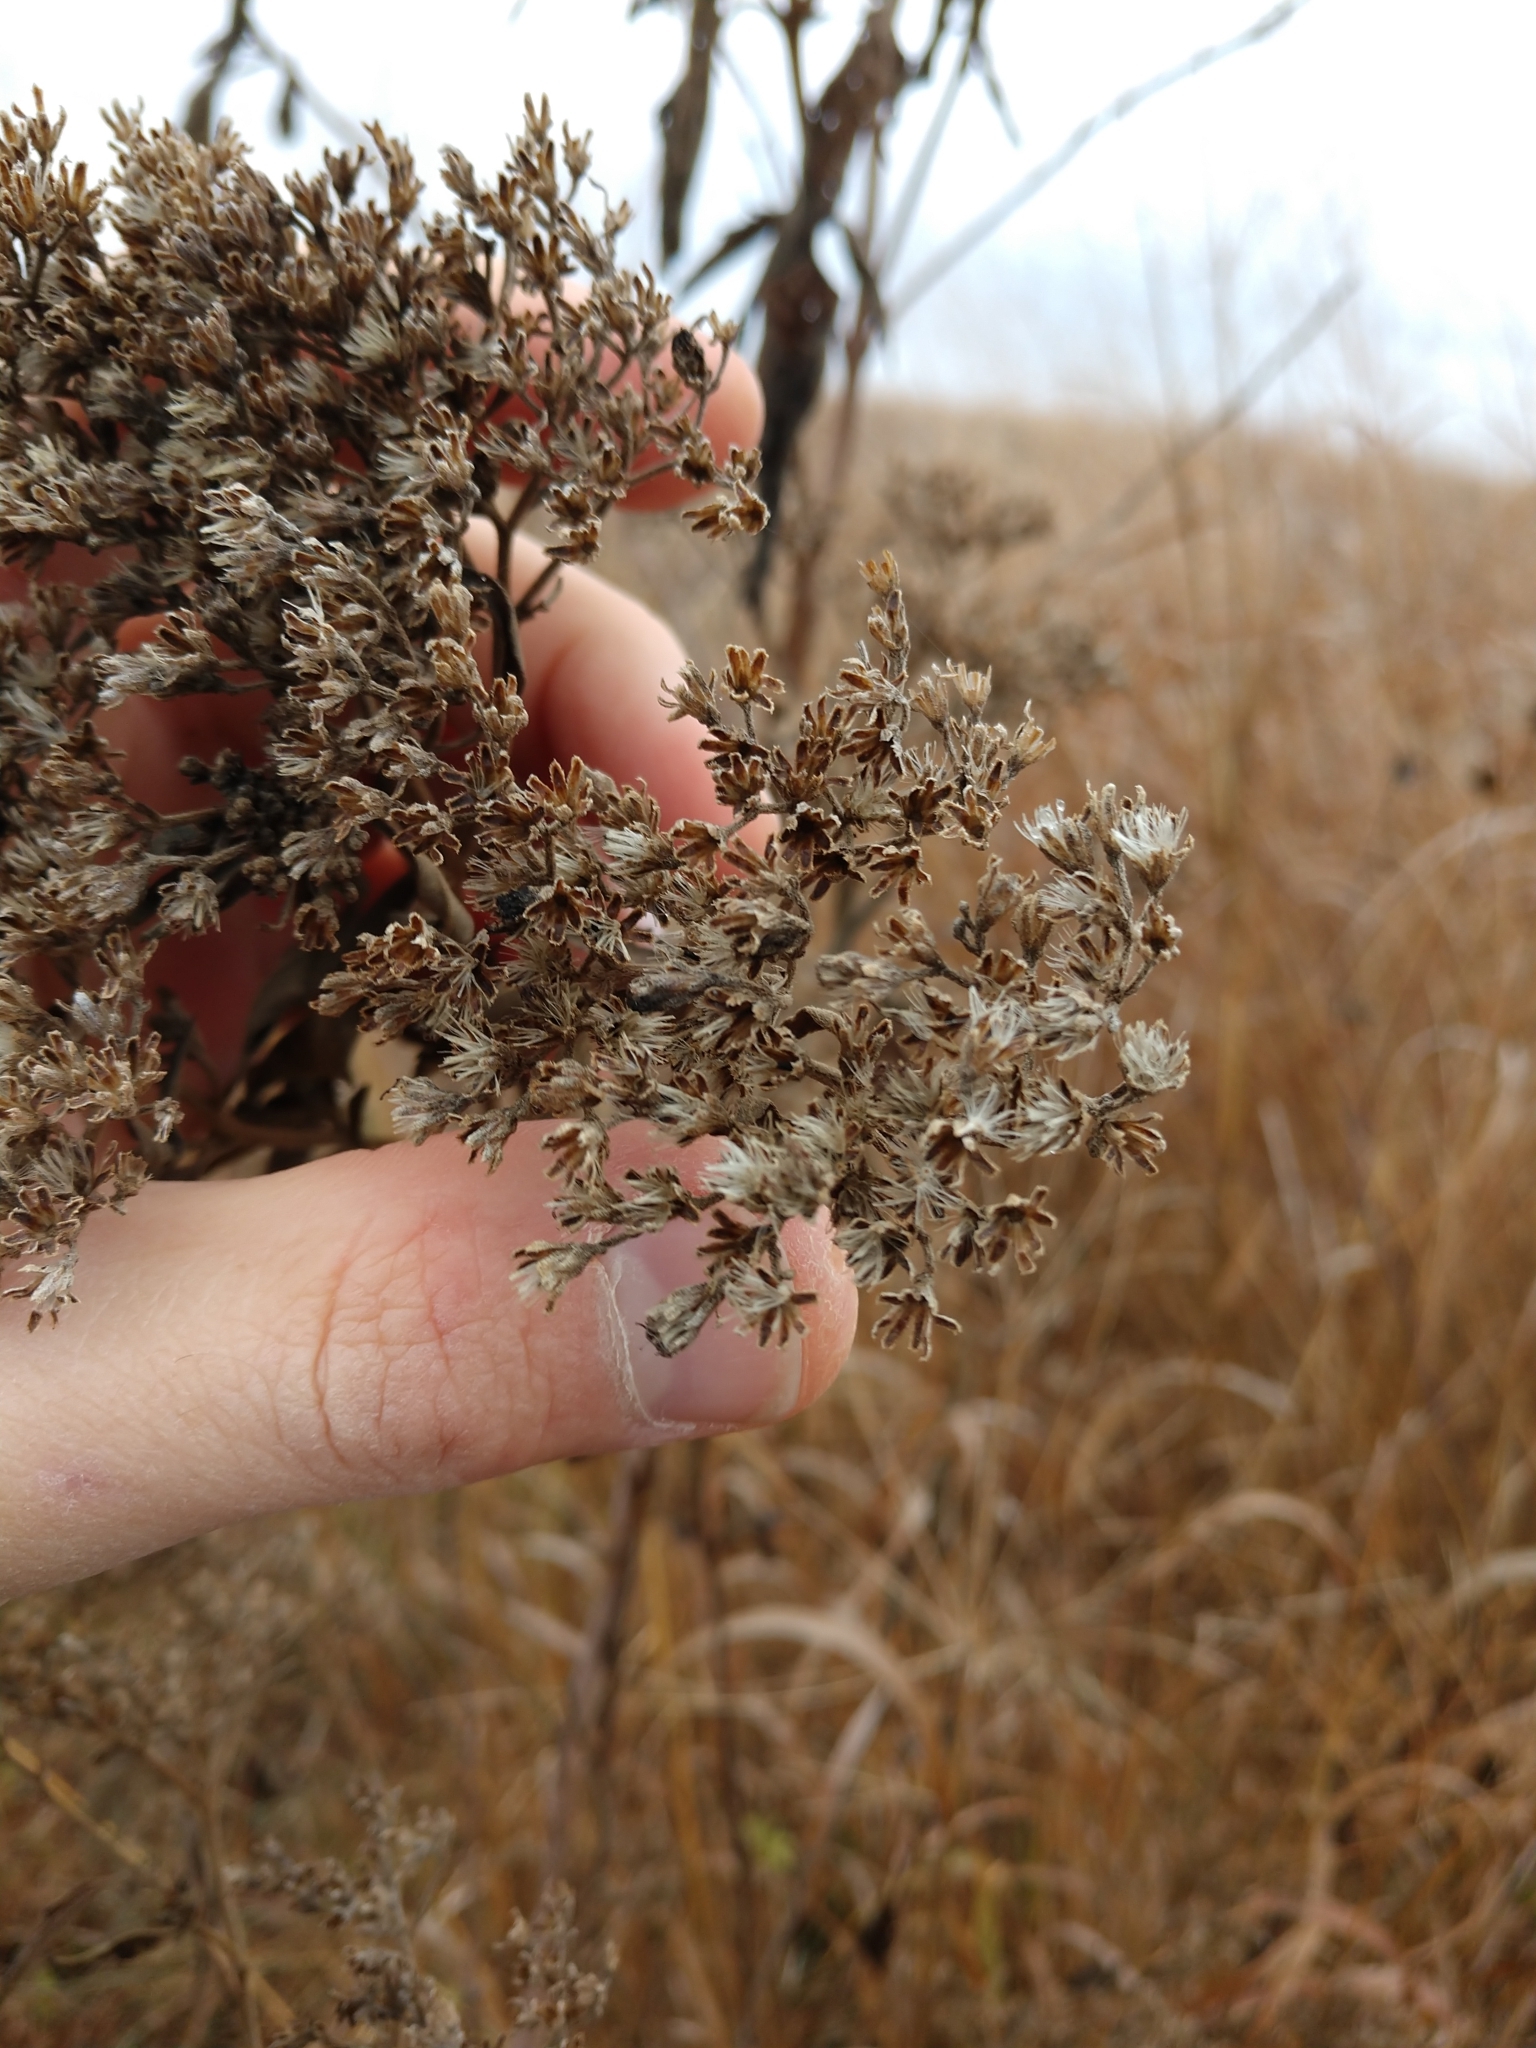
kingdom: Plantae
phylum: Tracheophyta
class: Magnoliopsida
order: Asterales
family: Asteraceae
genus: Eupatorium
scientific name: Eupatorium serotinum
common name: Late boneset
